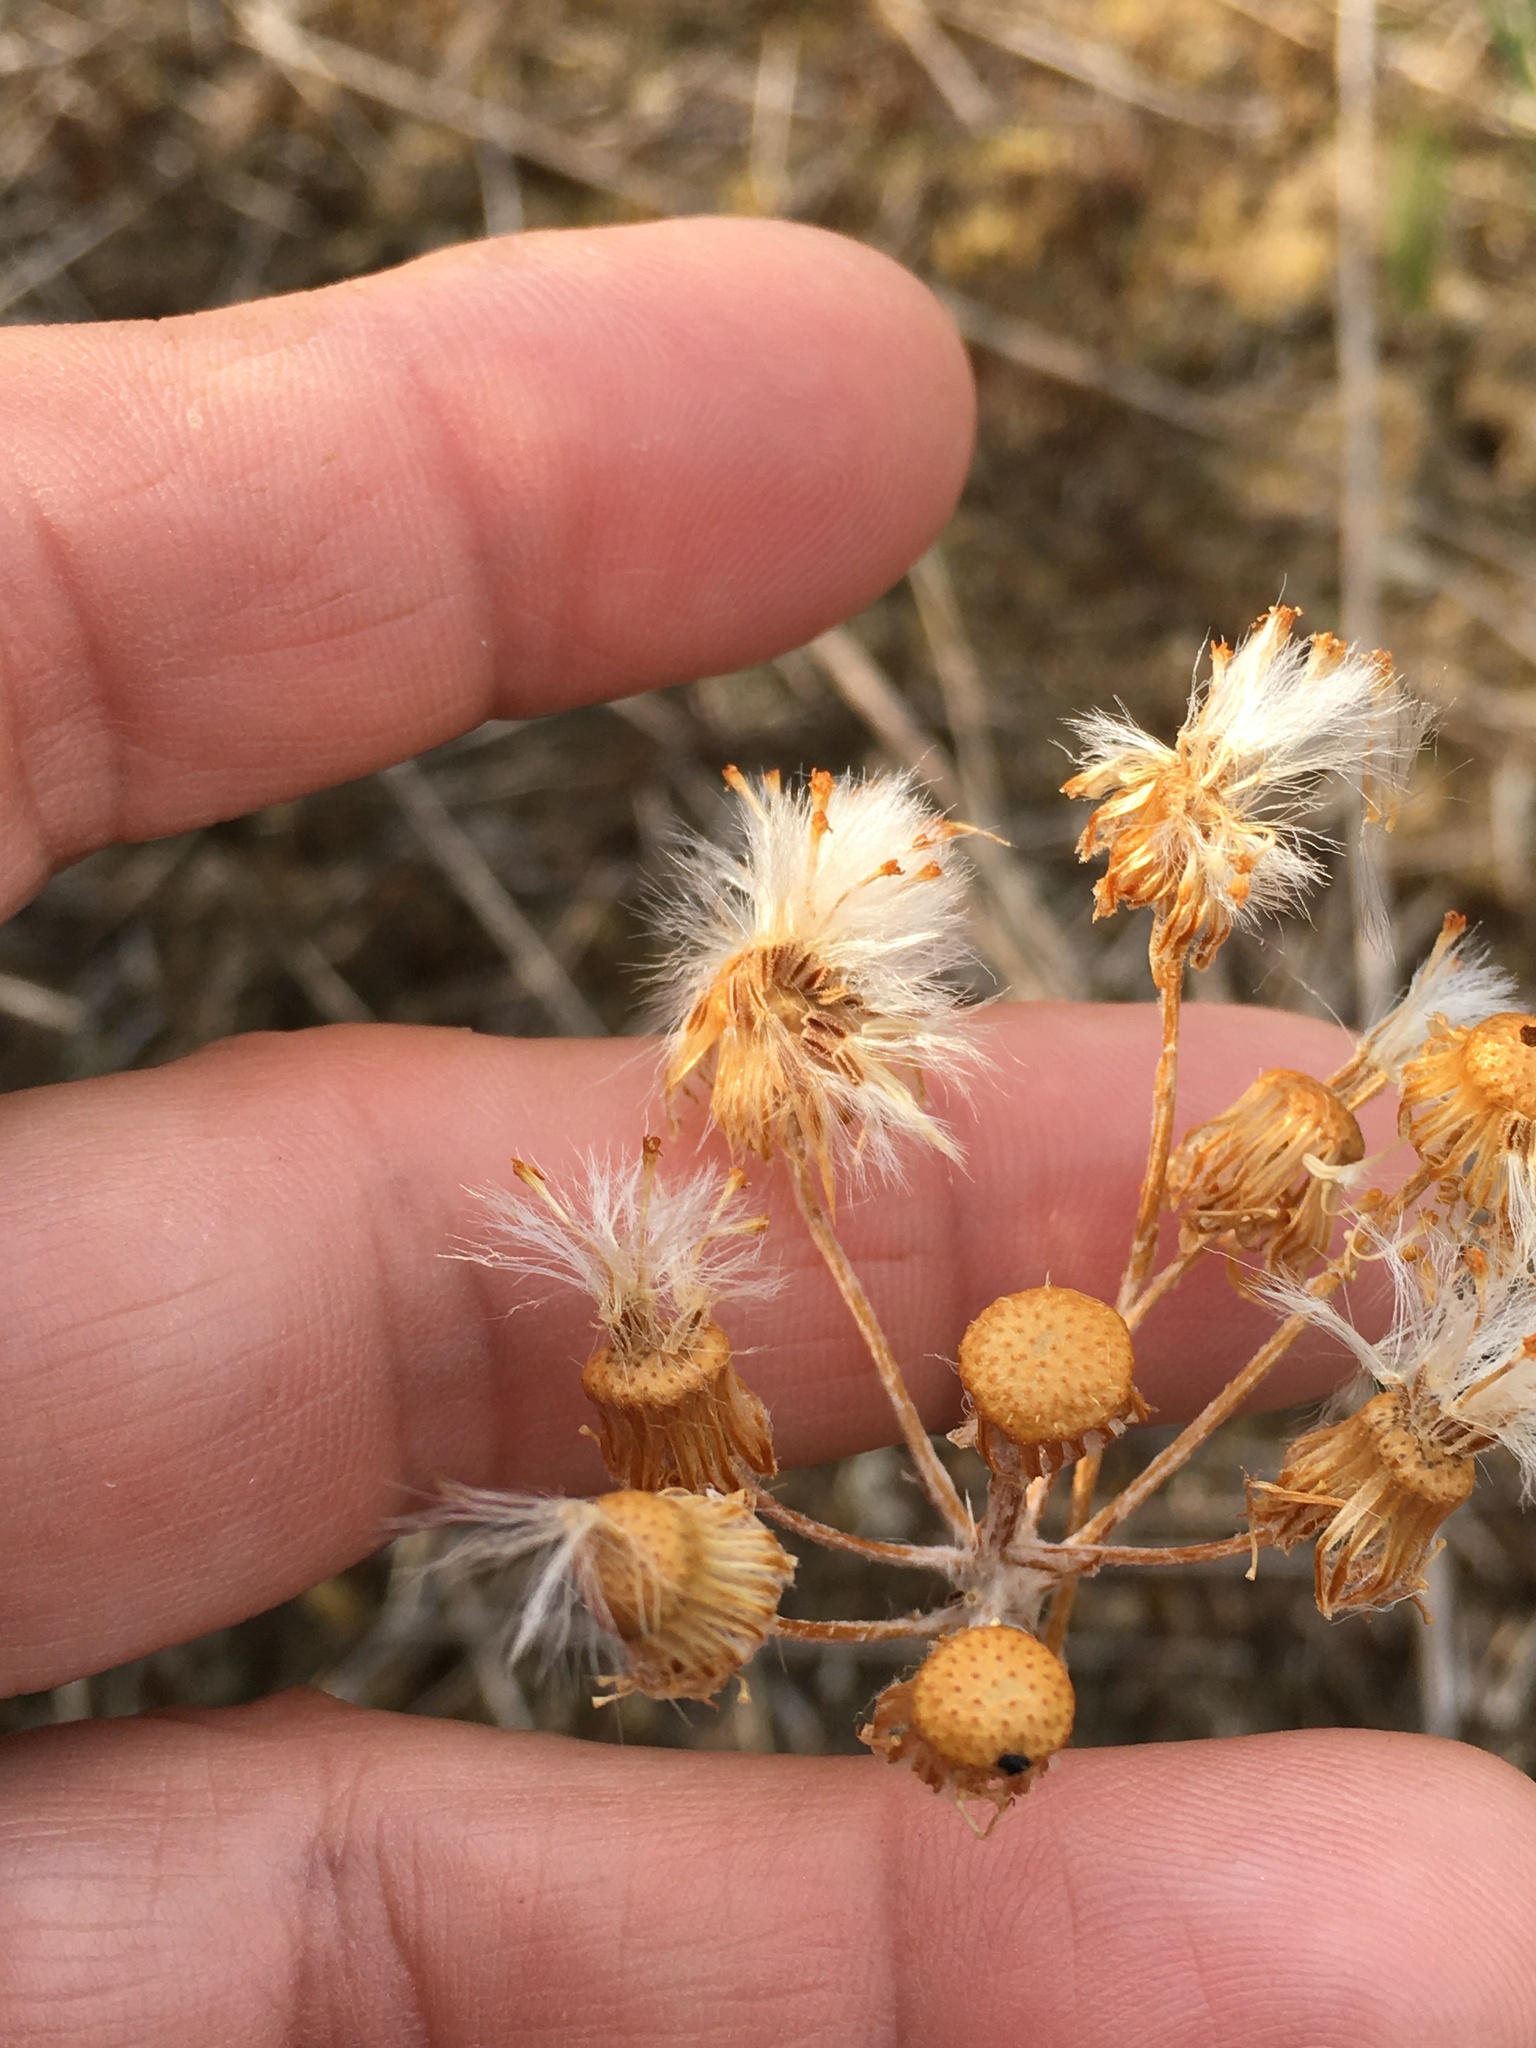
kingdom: Plantae
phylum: Tracheophyta
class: Magnoliopsida
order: Asterales
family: Asteraceae
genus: Packera
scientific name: Packera dubia
